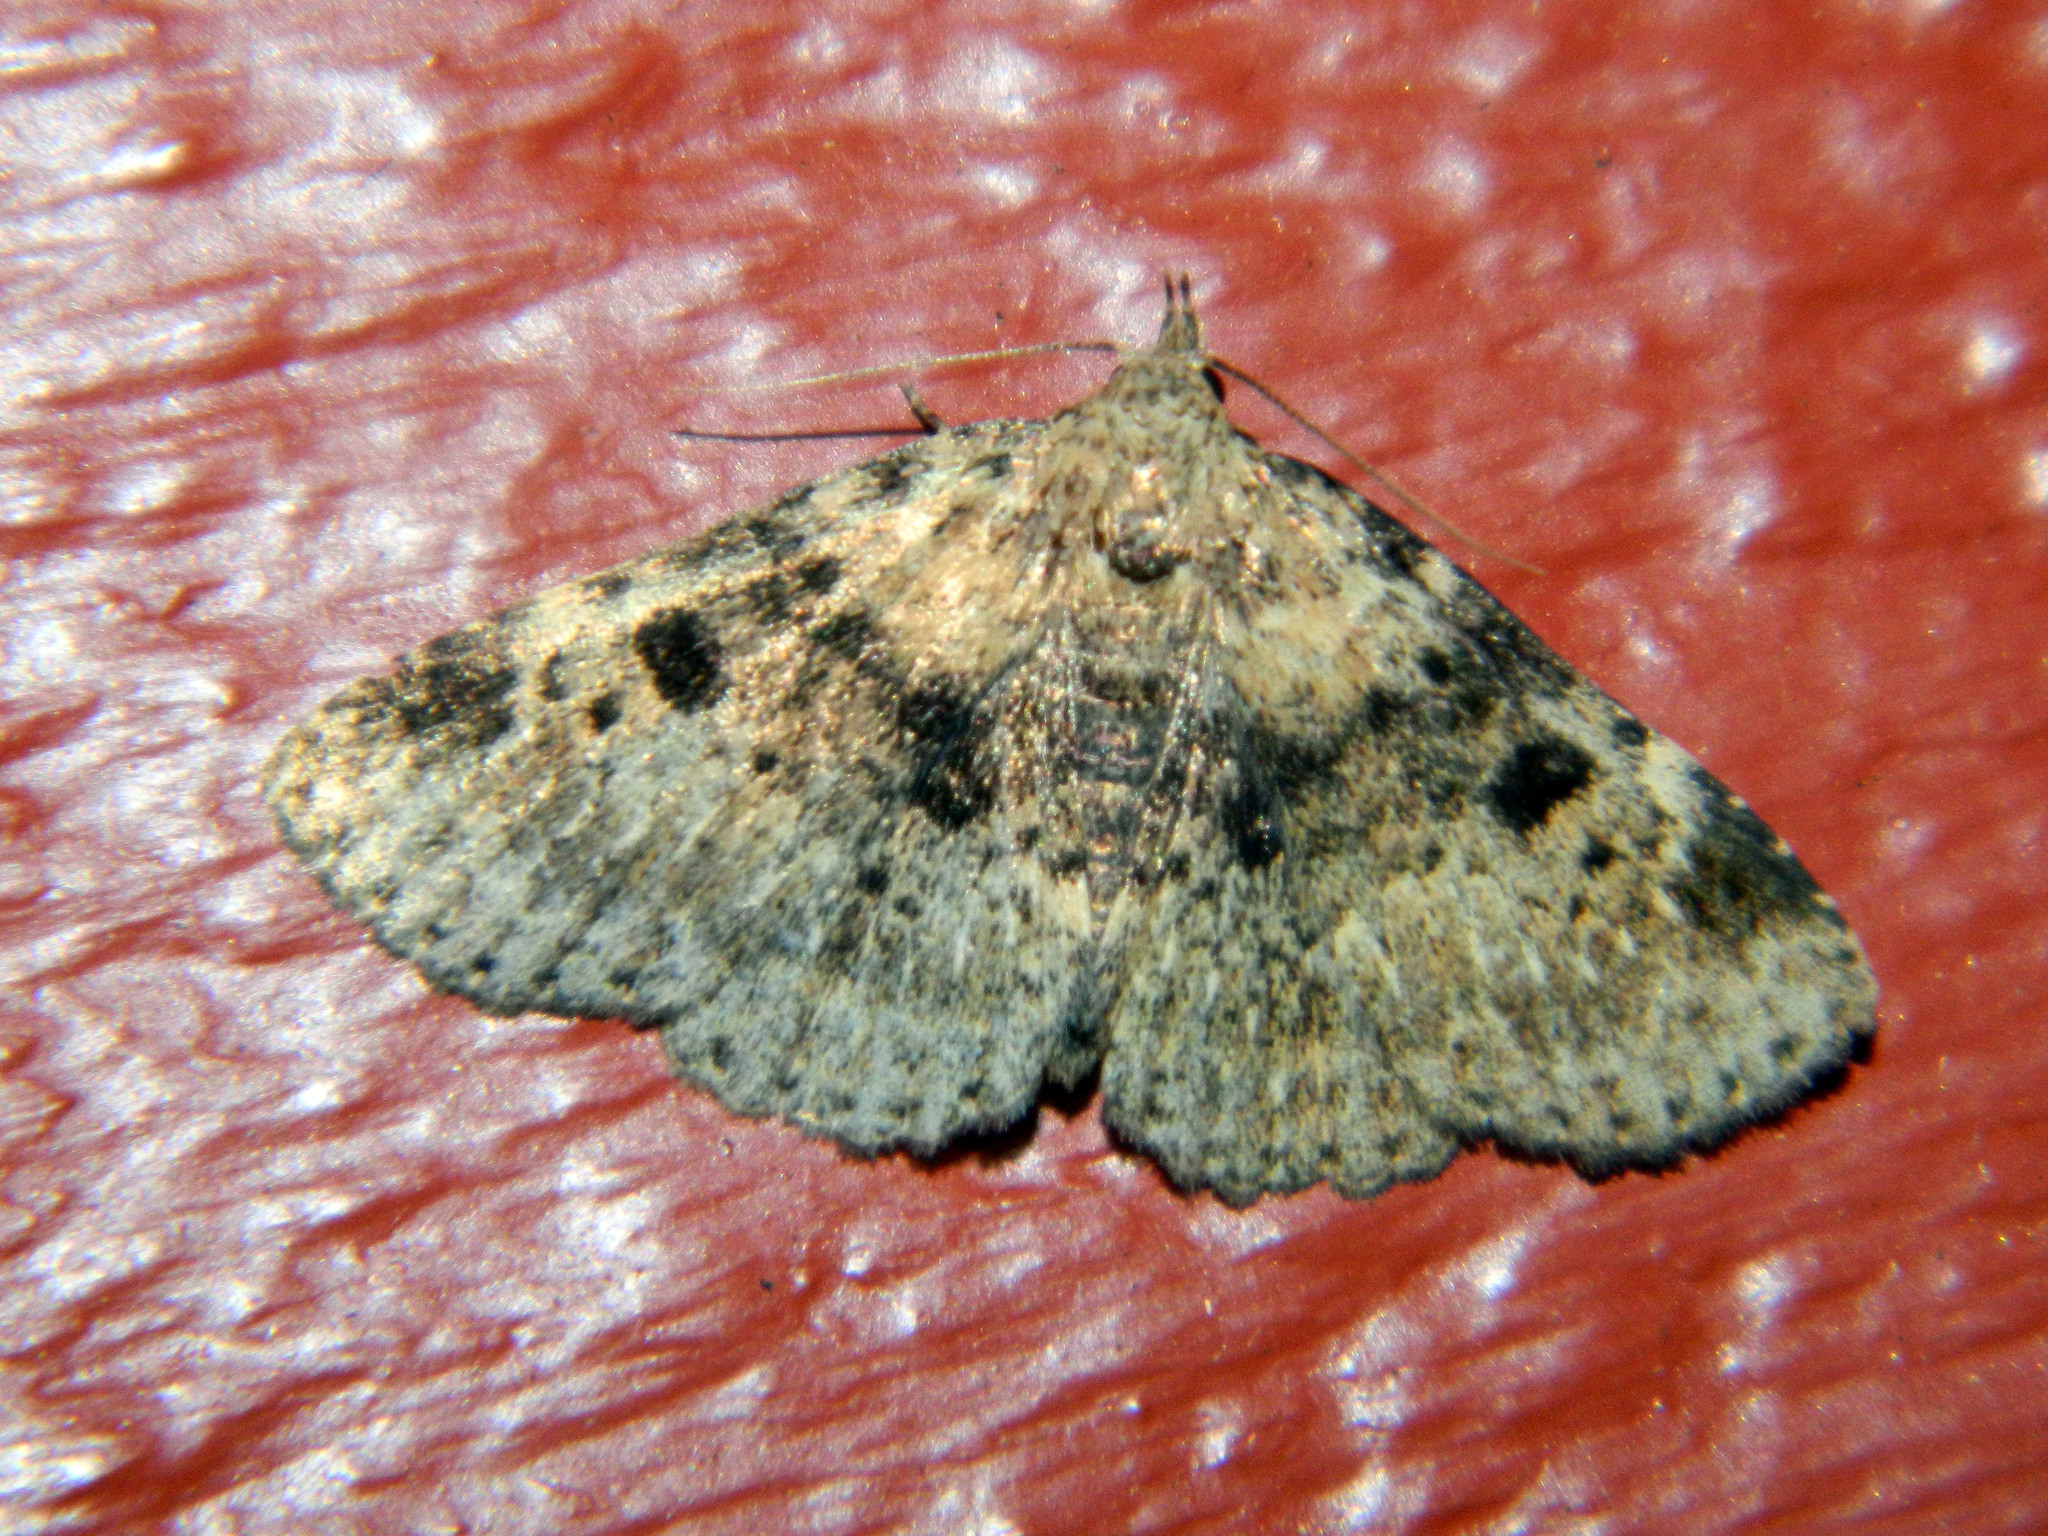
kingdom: Animalia
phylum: Arthropoda
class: Insecta
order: Lepidoptera
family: Erebidae
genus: Metalectra
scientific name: Metalectra quadrisignata
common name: Four-spotted fungus moth
